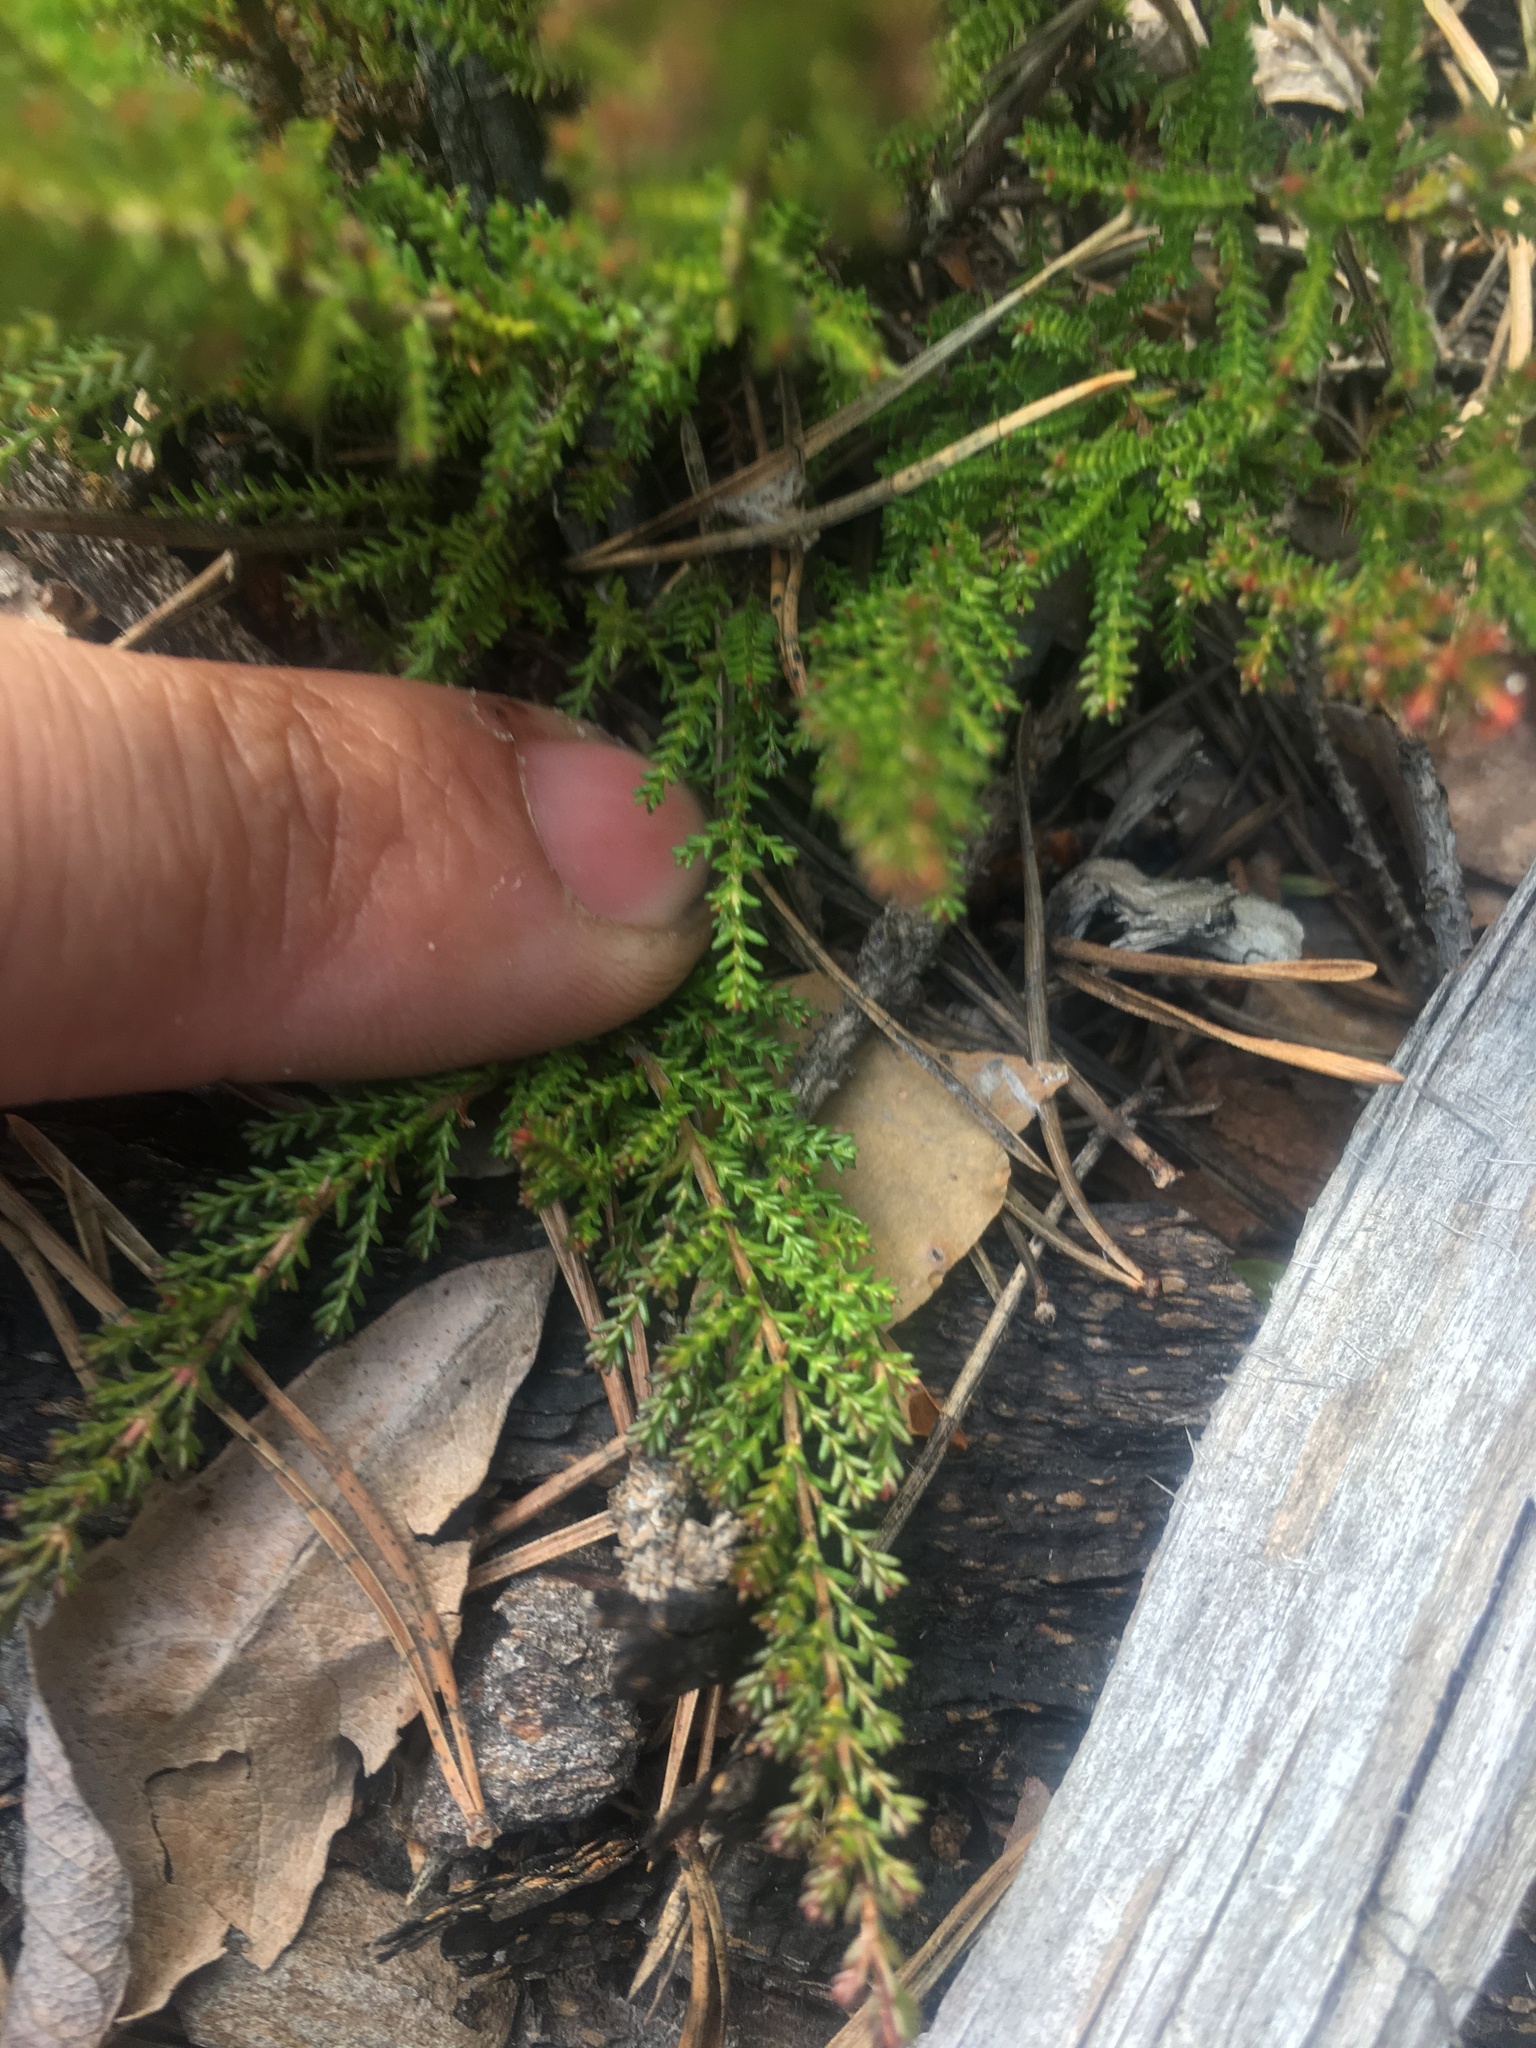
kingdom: Plantae
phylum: Tracheophyta
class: Magnoliopsida
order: Ericales
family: Ericaceae
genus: Calluna
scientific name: Calluna vulgaris
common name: Heather
